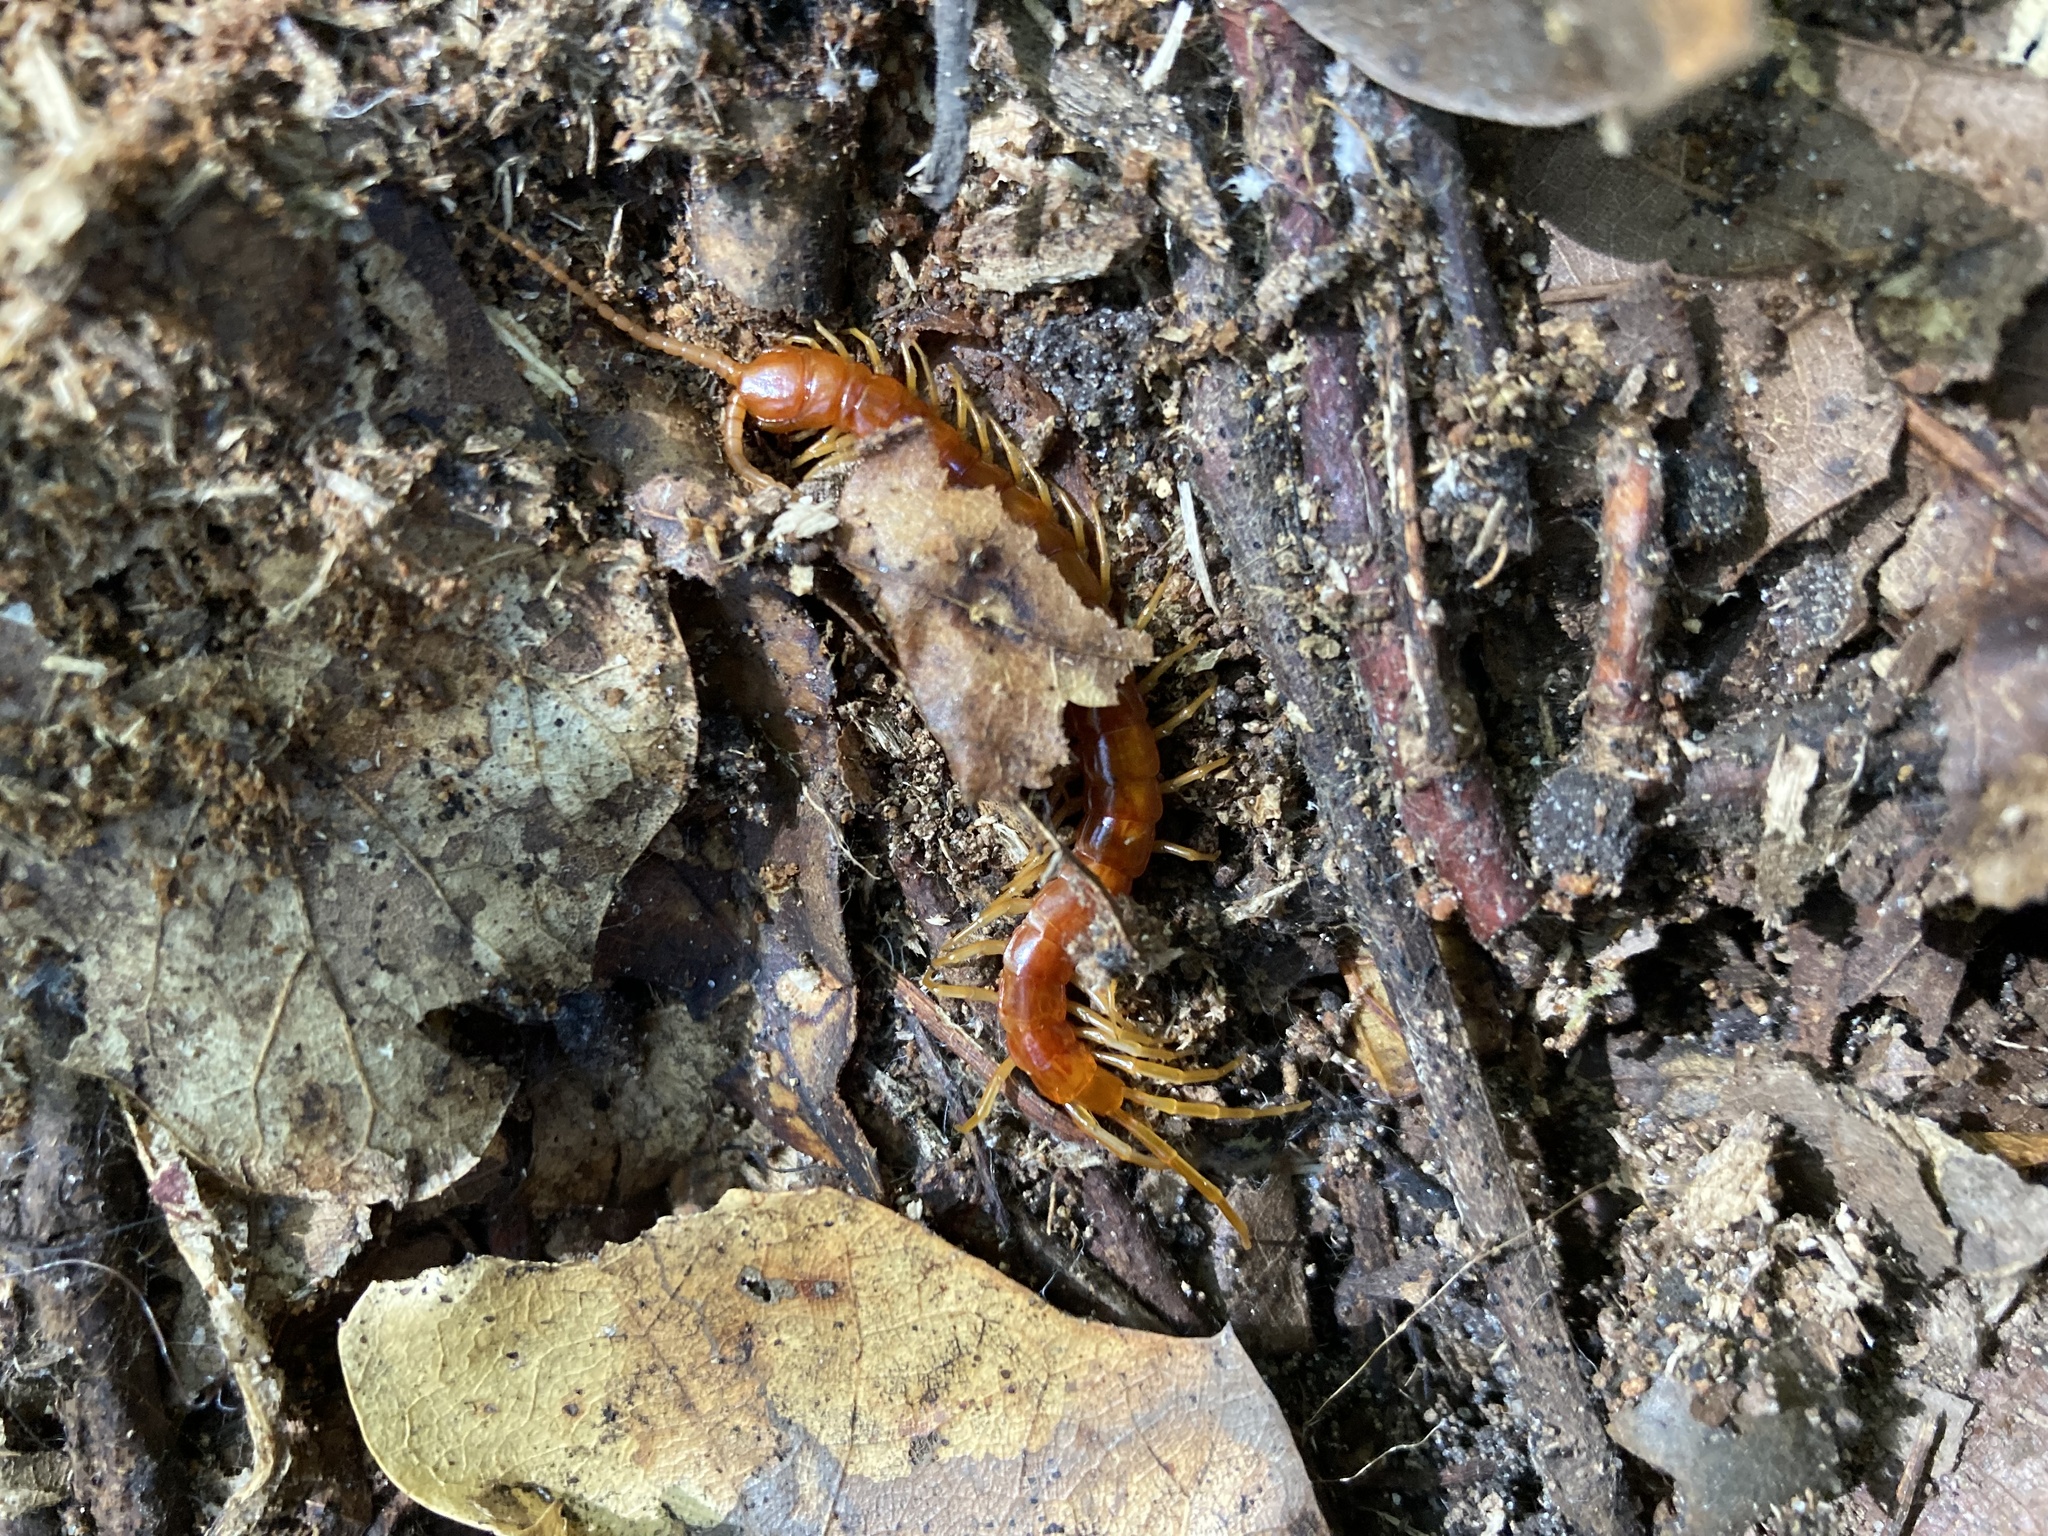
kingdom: Animalia
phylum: Arthropoda
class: Chilopoda
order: Scolopendromorpha
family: Scolopocryptopidae
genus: Scolopocryptops
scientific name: Scolopocryptops sexspinosus
